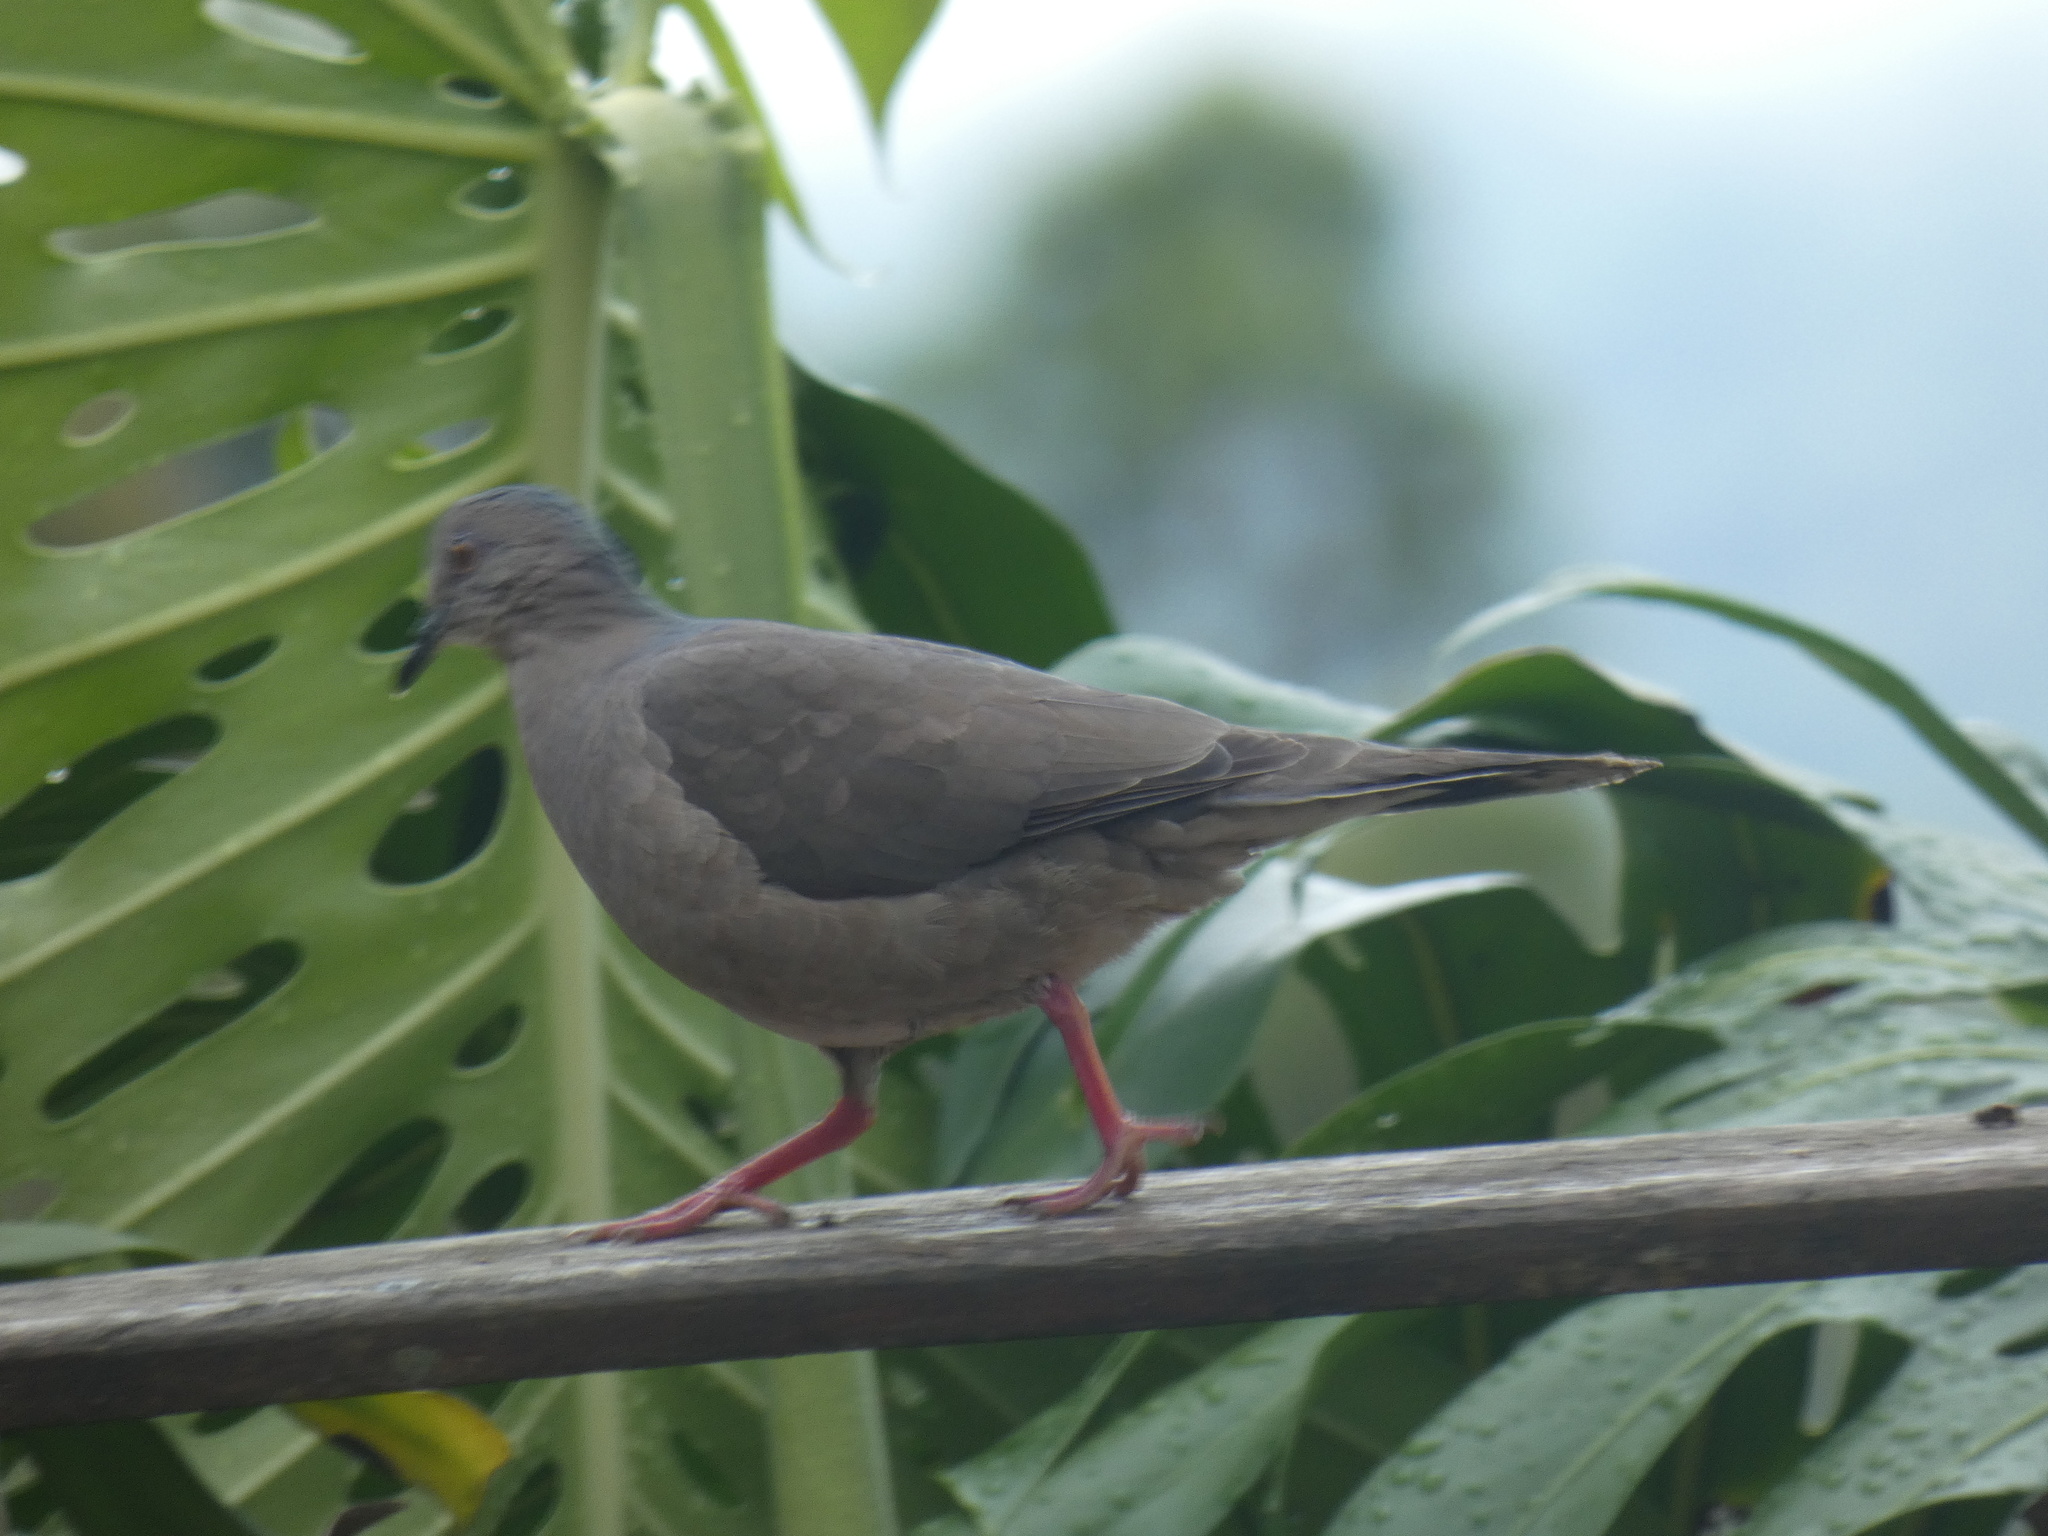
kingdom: Animalia
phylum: Chordata
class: Aves
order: Columbiformes
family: Columbidae
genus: Leptotila
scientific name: Leptotila rufaxilla
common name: Grey-fronted dove
